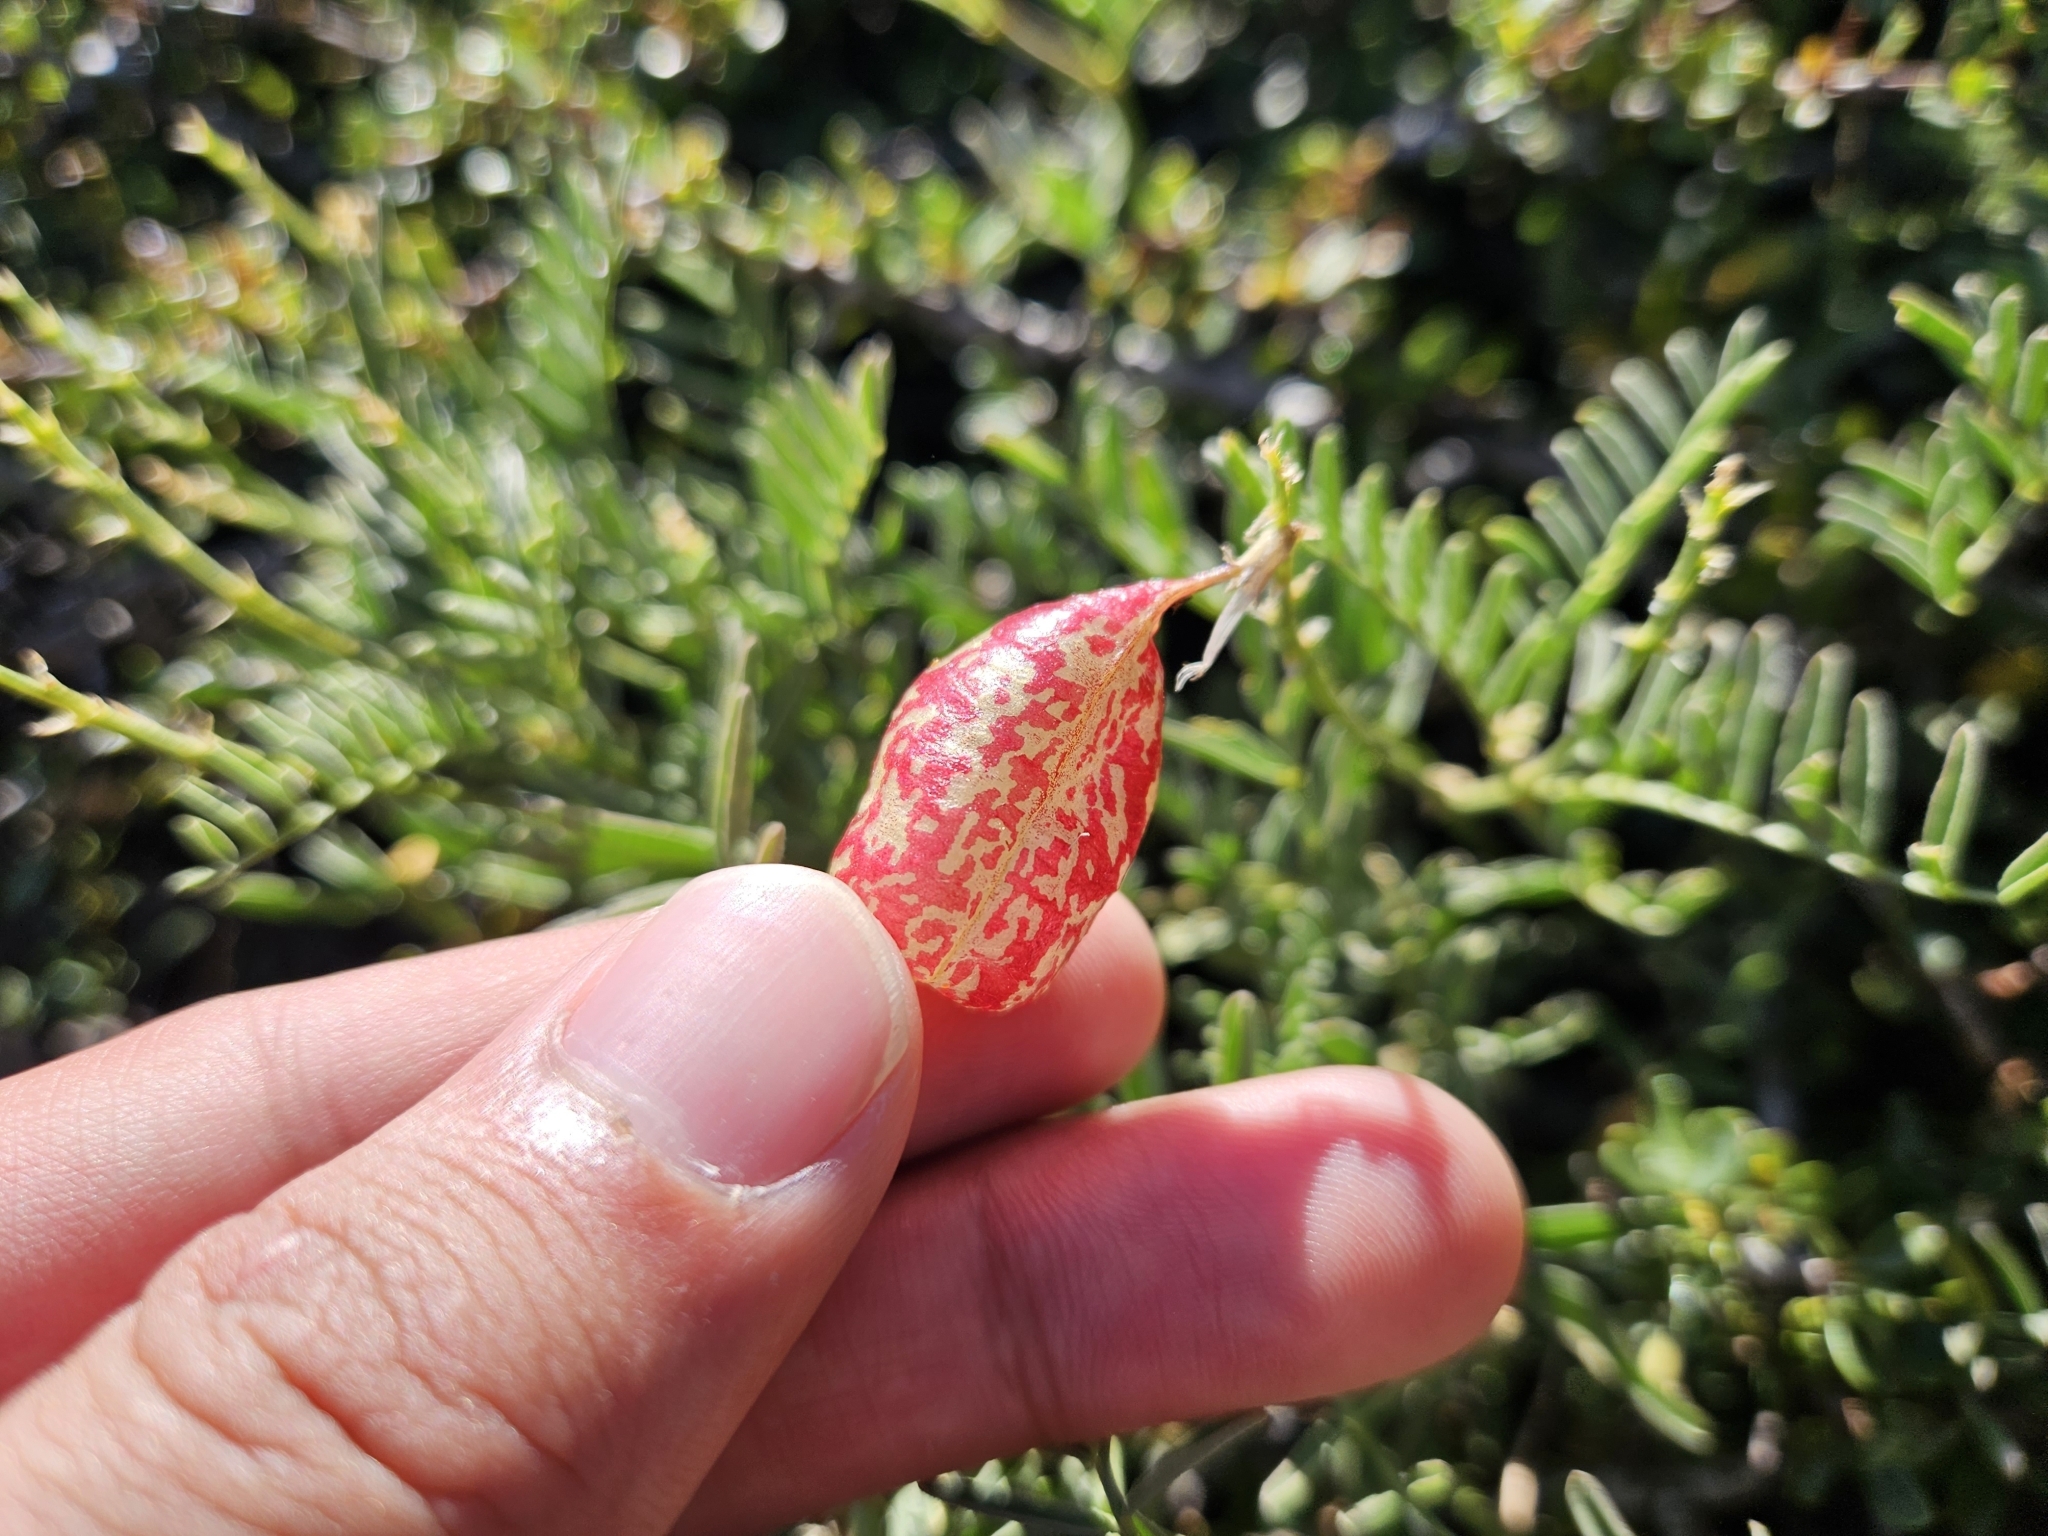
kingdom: Plantae
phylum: Tracheophyta
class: Magnoliopsida
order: Fabales
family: Fabaceae
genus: Astragalus
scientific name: Astragalus whitneyi
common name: Balloonpod milkvetch
